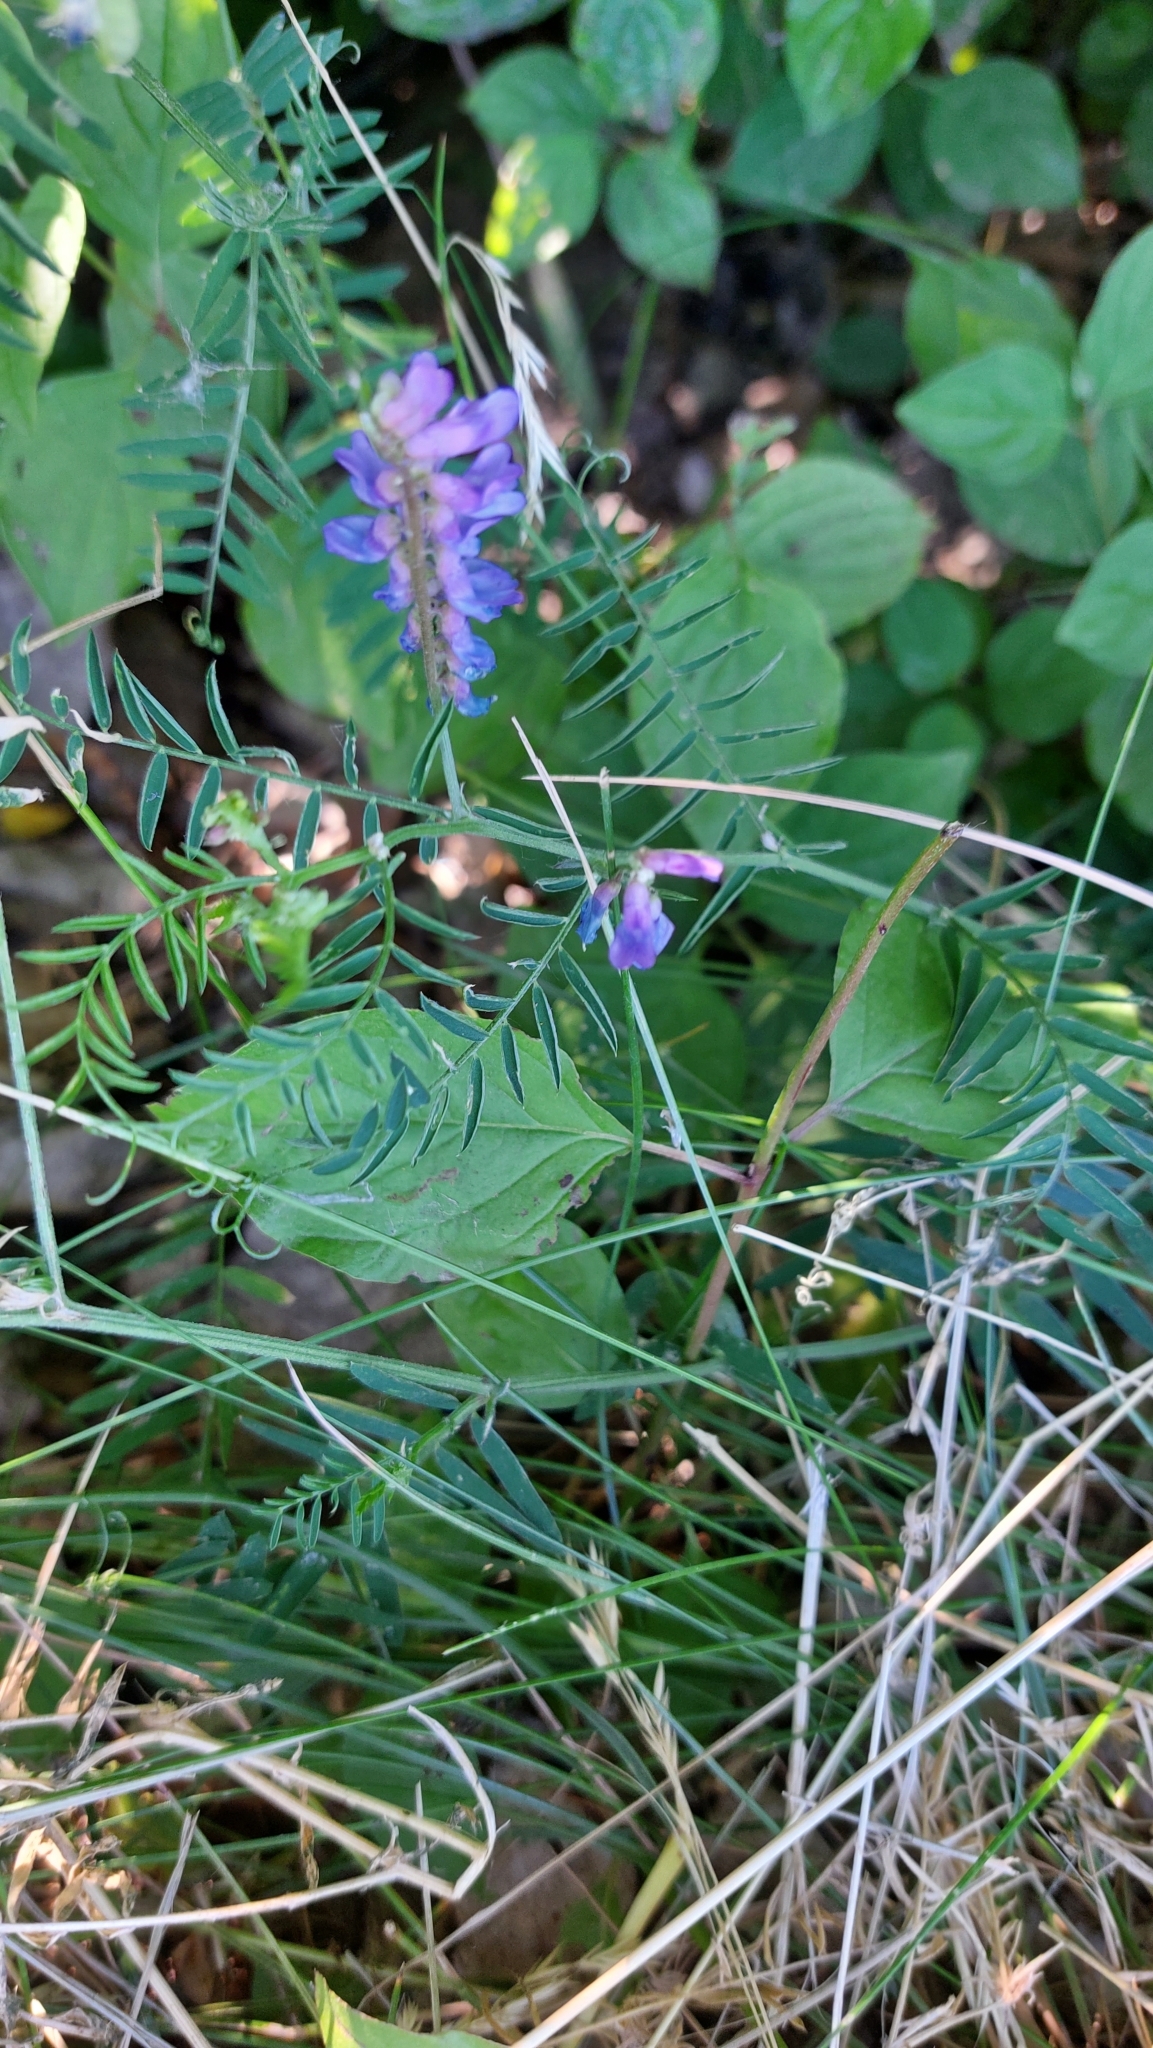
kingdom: Plantae
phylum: Tracheophyta
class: Magnoliopsida
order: Fabales
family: Fabaceae
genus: Vicia
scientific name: Vicia cracca
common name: Bird vetch
